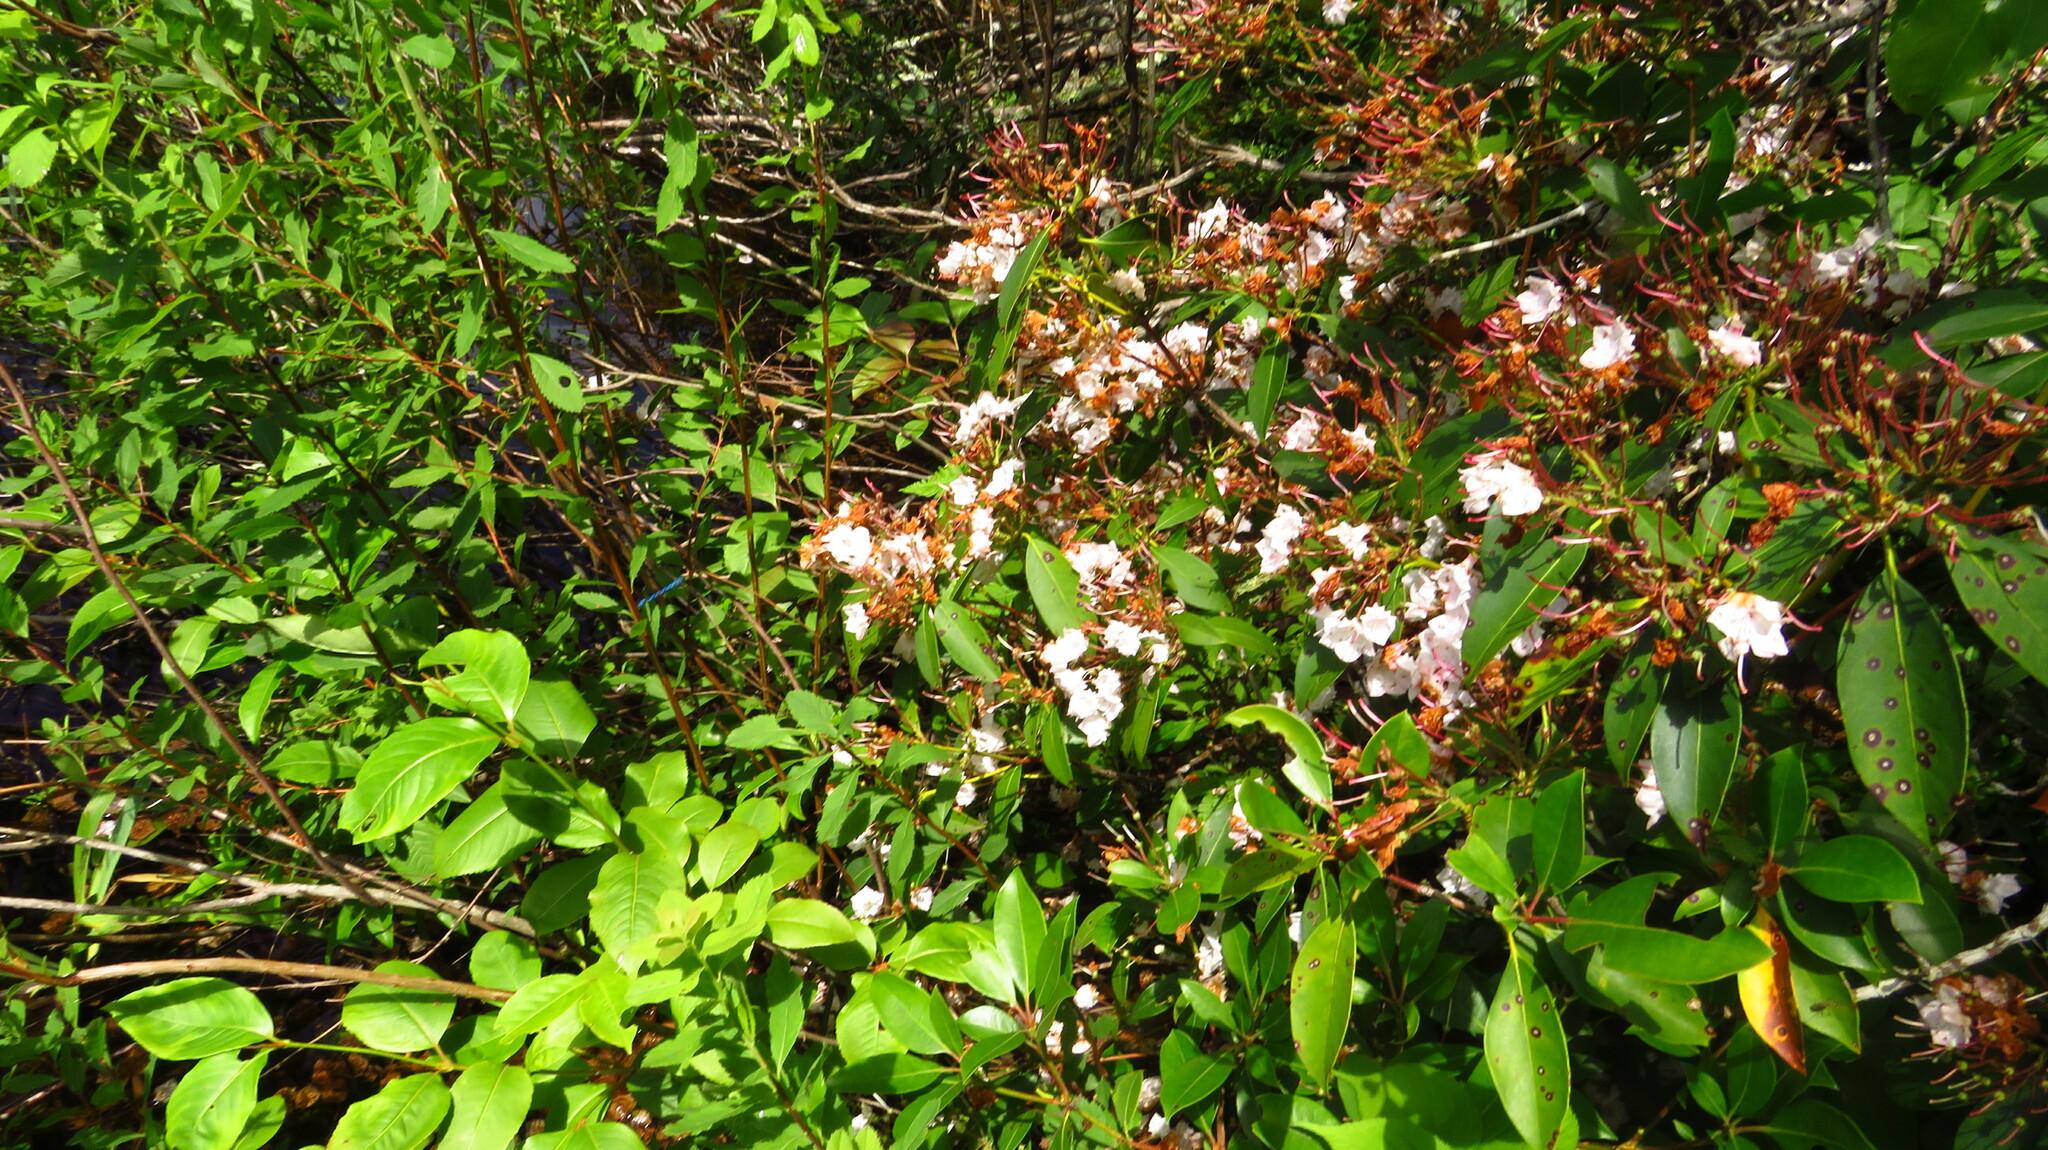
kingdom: Plantae
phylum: Tracheophyta
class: Magnoliopsida
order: Ericales
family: Ericaceae
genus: Kalmia
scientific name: Kalmia latifolia
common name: Mountain-laurel
